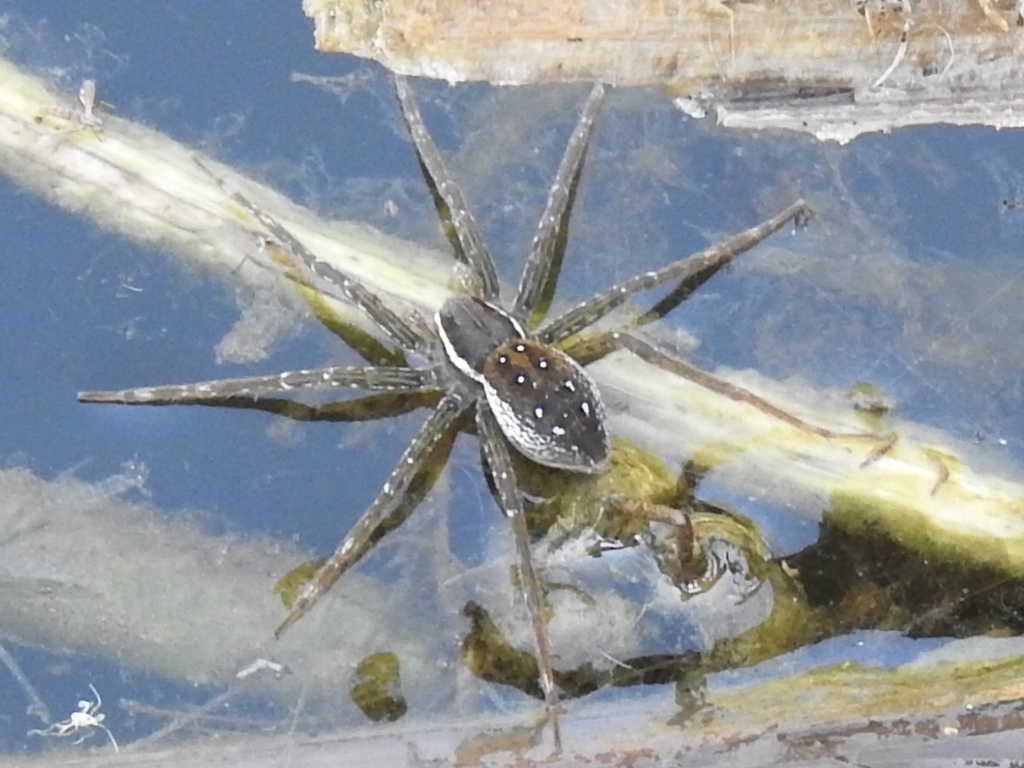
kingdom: Animalia
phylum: Arthropoda
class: Arachnida
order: Araneae
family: Pisauridae
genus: Dolomedes
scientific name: Dolomedes triton
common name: Six-spotted fishing spider
